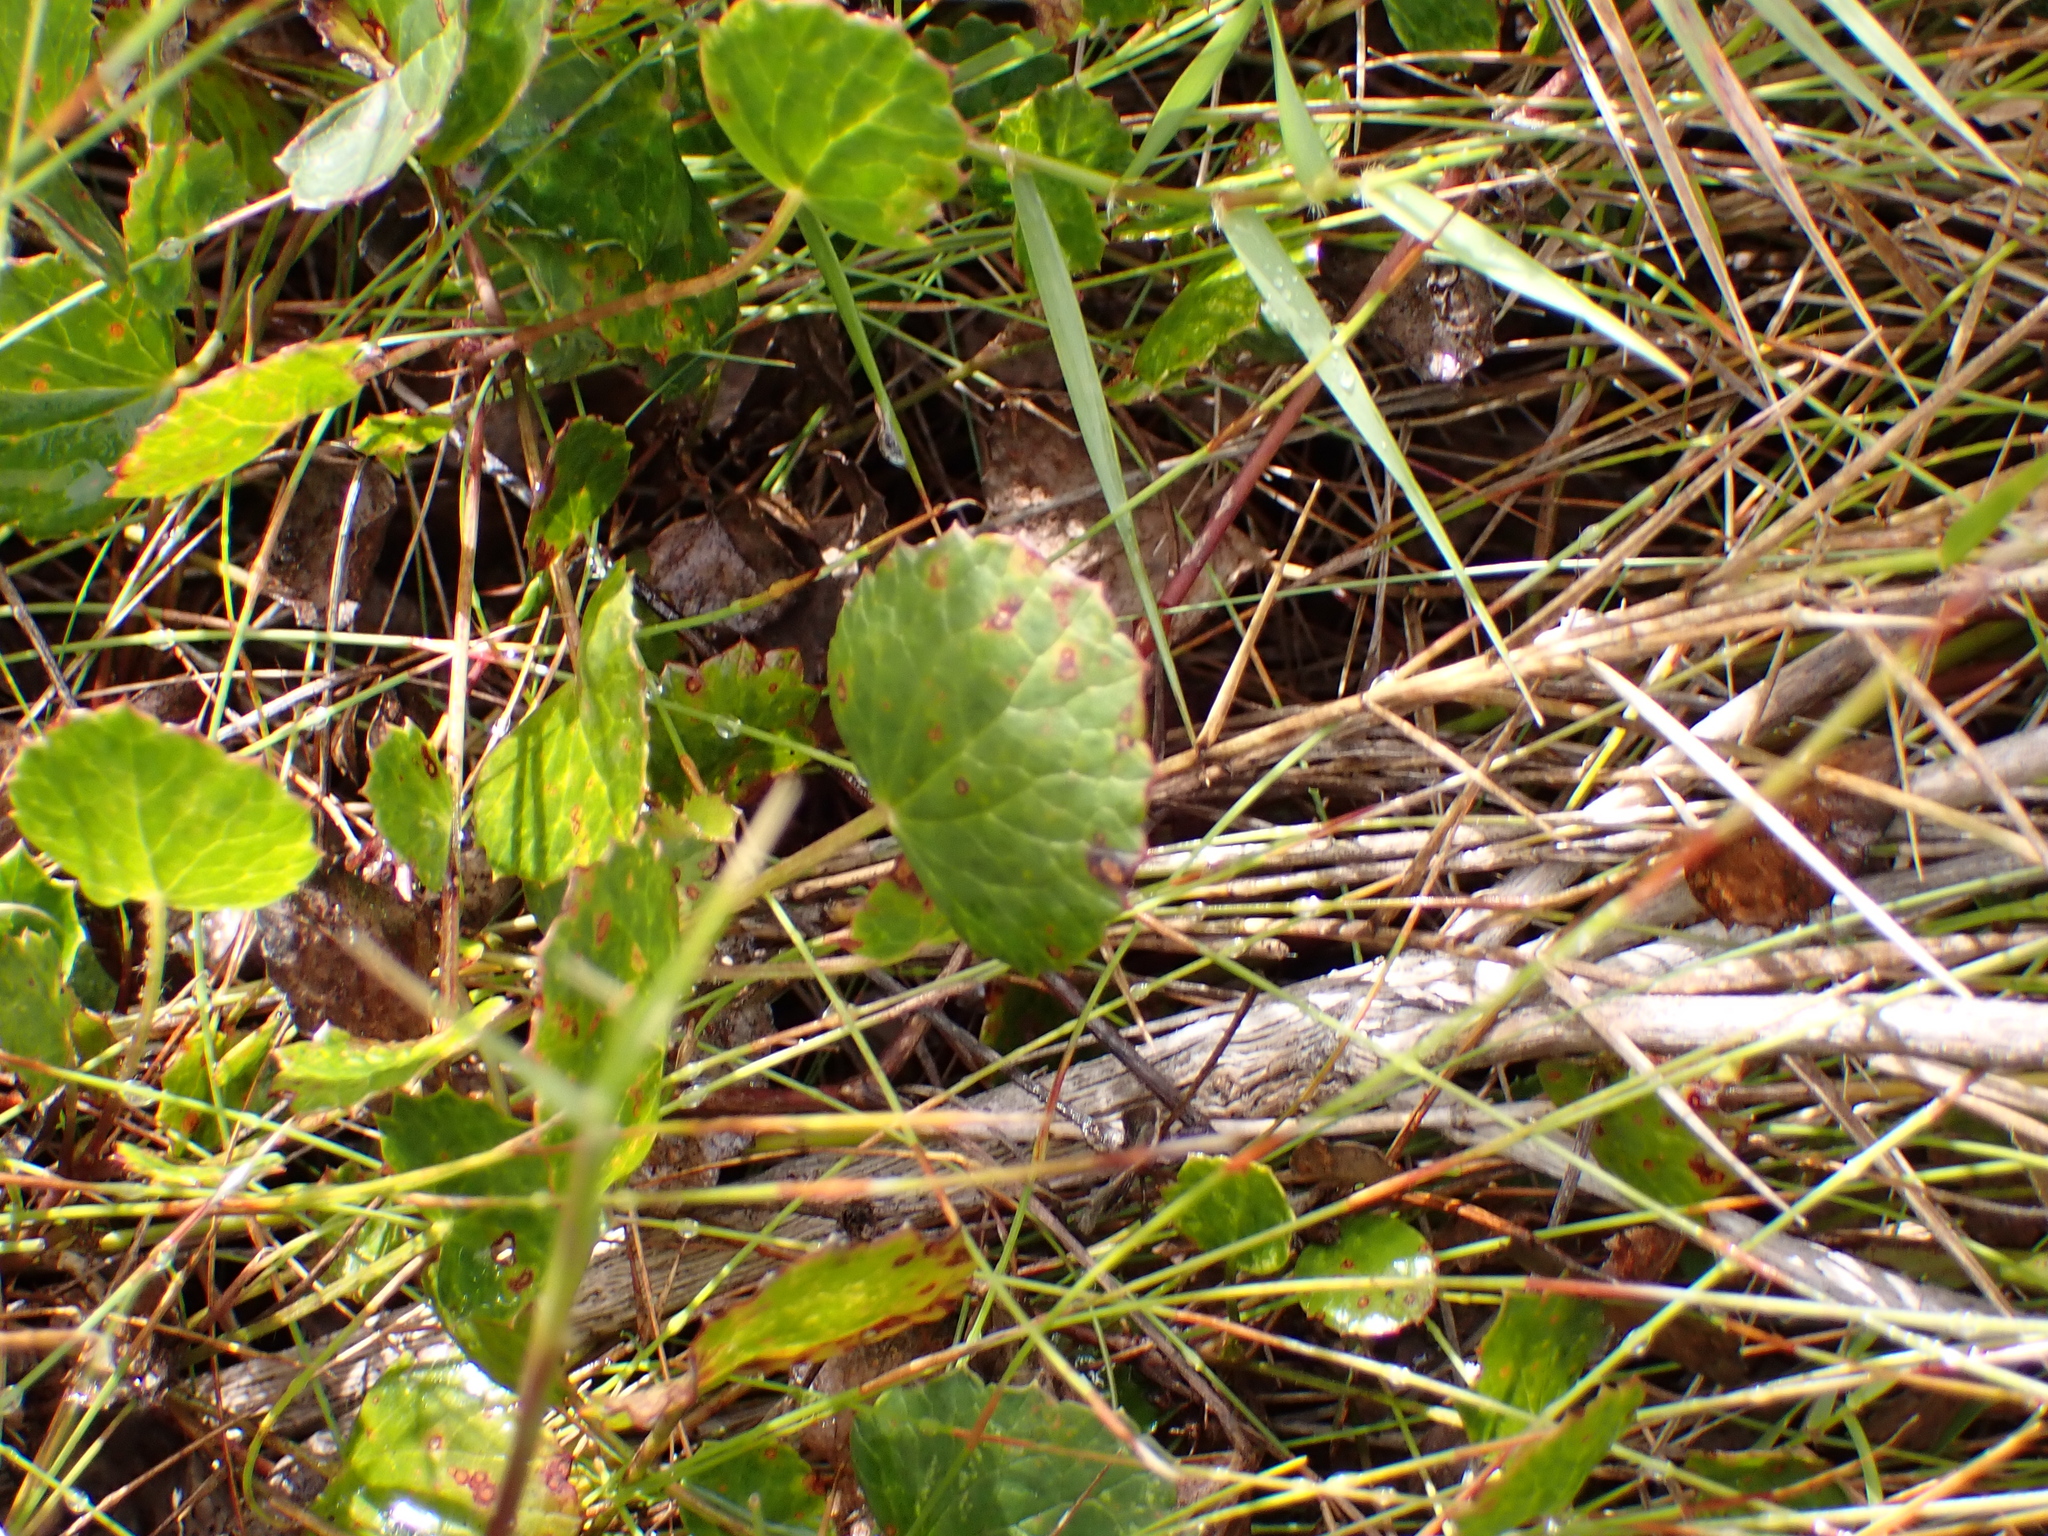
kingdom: Plantae
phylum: Tracheophyta
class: Magnoliopsida
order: Apiales
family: Apiaceae
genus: Centella
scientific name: Centella eriantha
